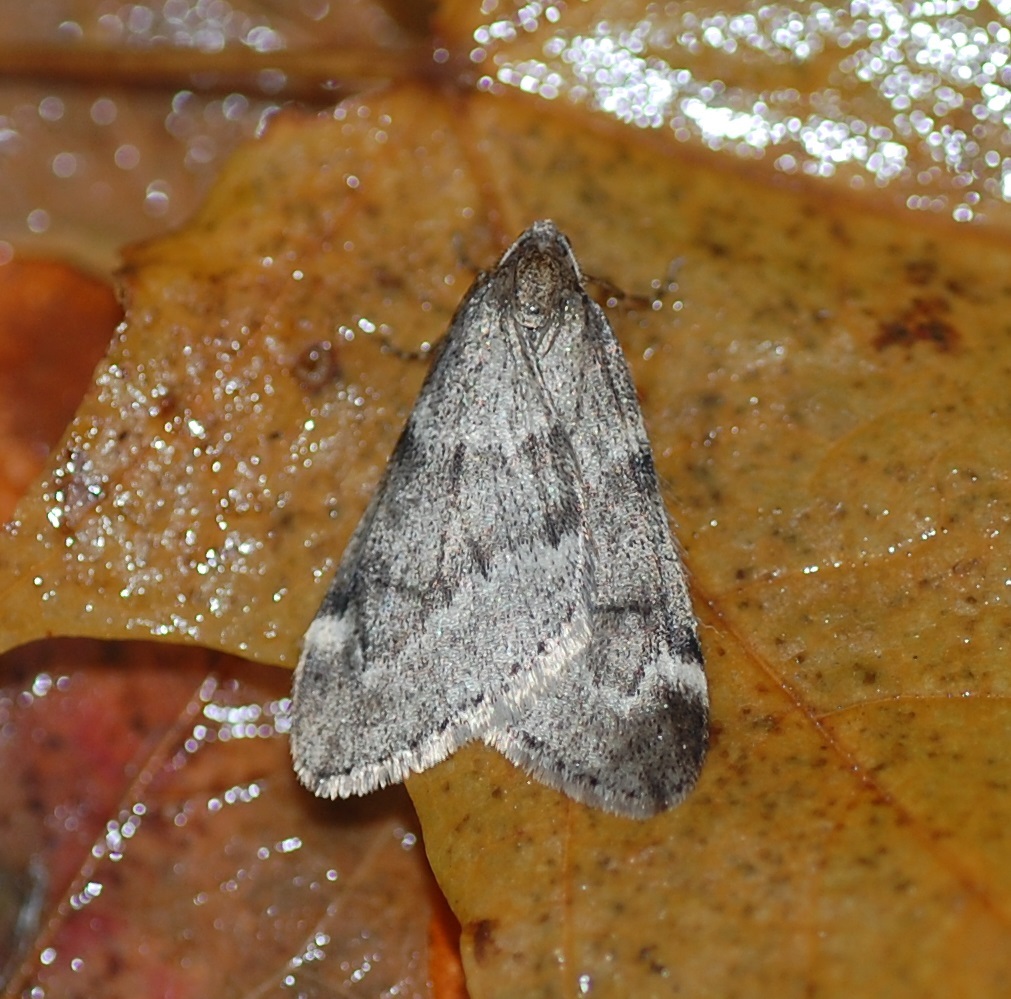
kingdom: Animalia
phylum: Arthropoda
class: Insecta
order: Lepidoptera
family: Geometridae
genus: Alsophila
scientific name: Alsophila pometaria
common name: Fall cankerworm
